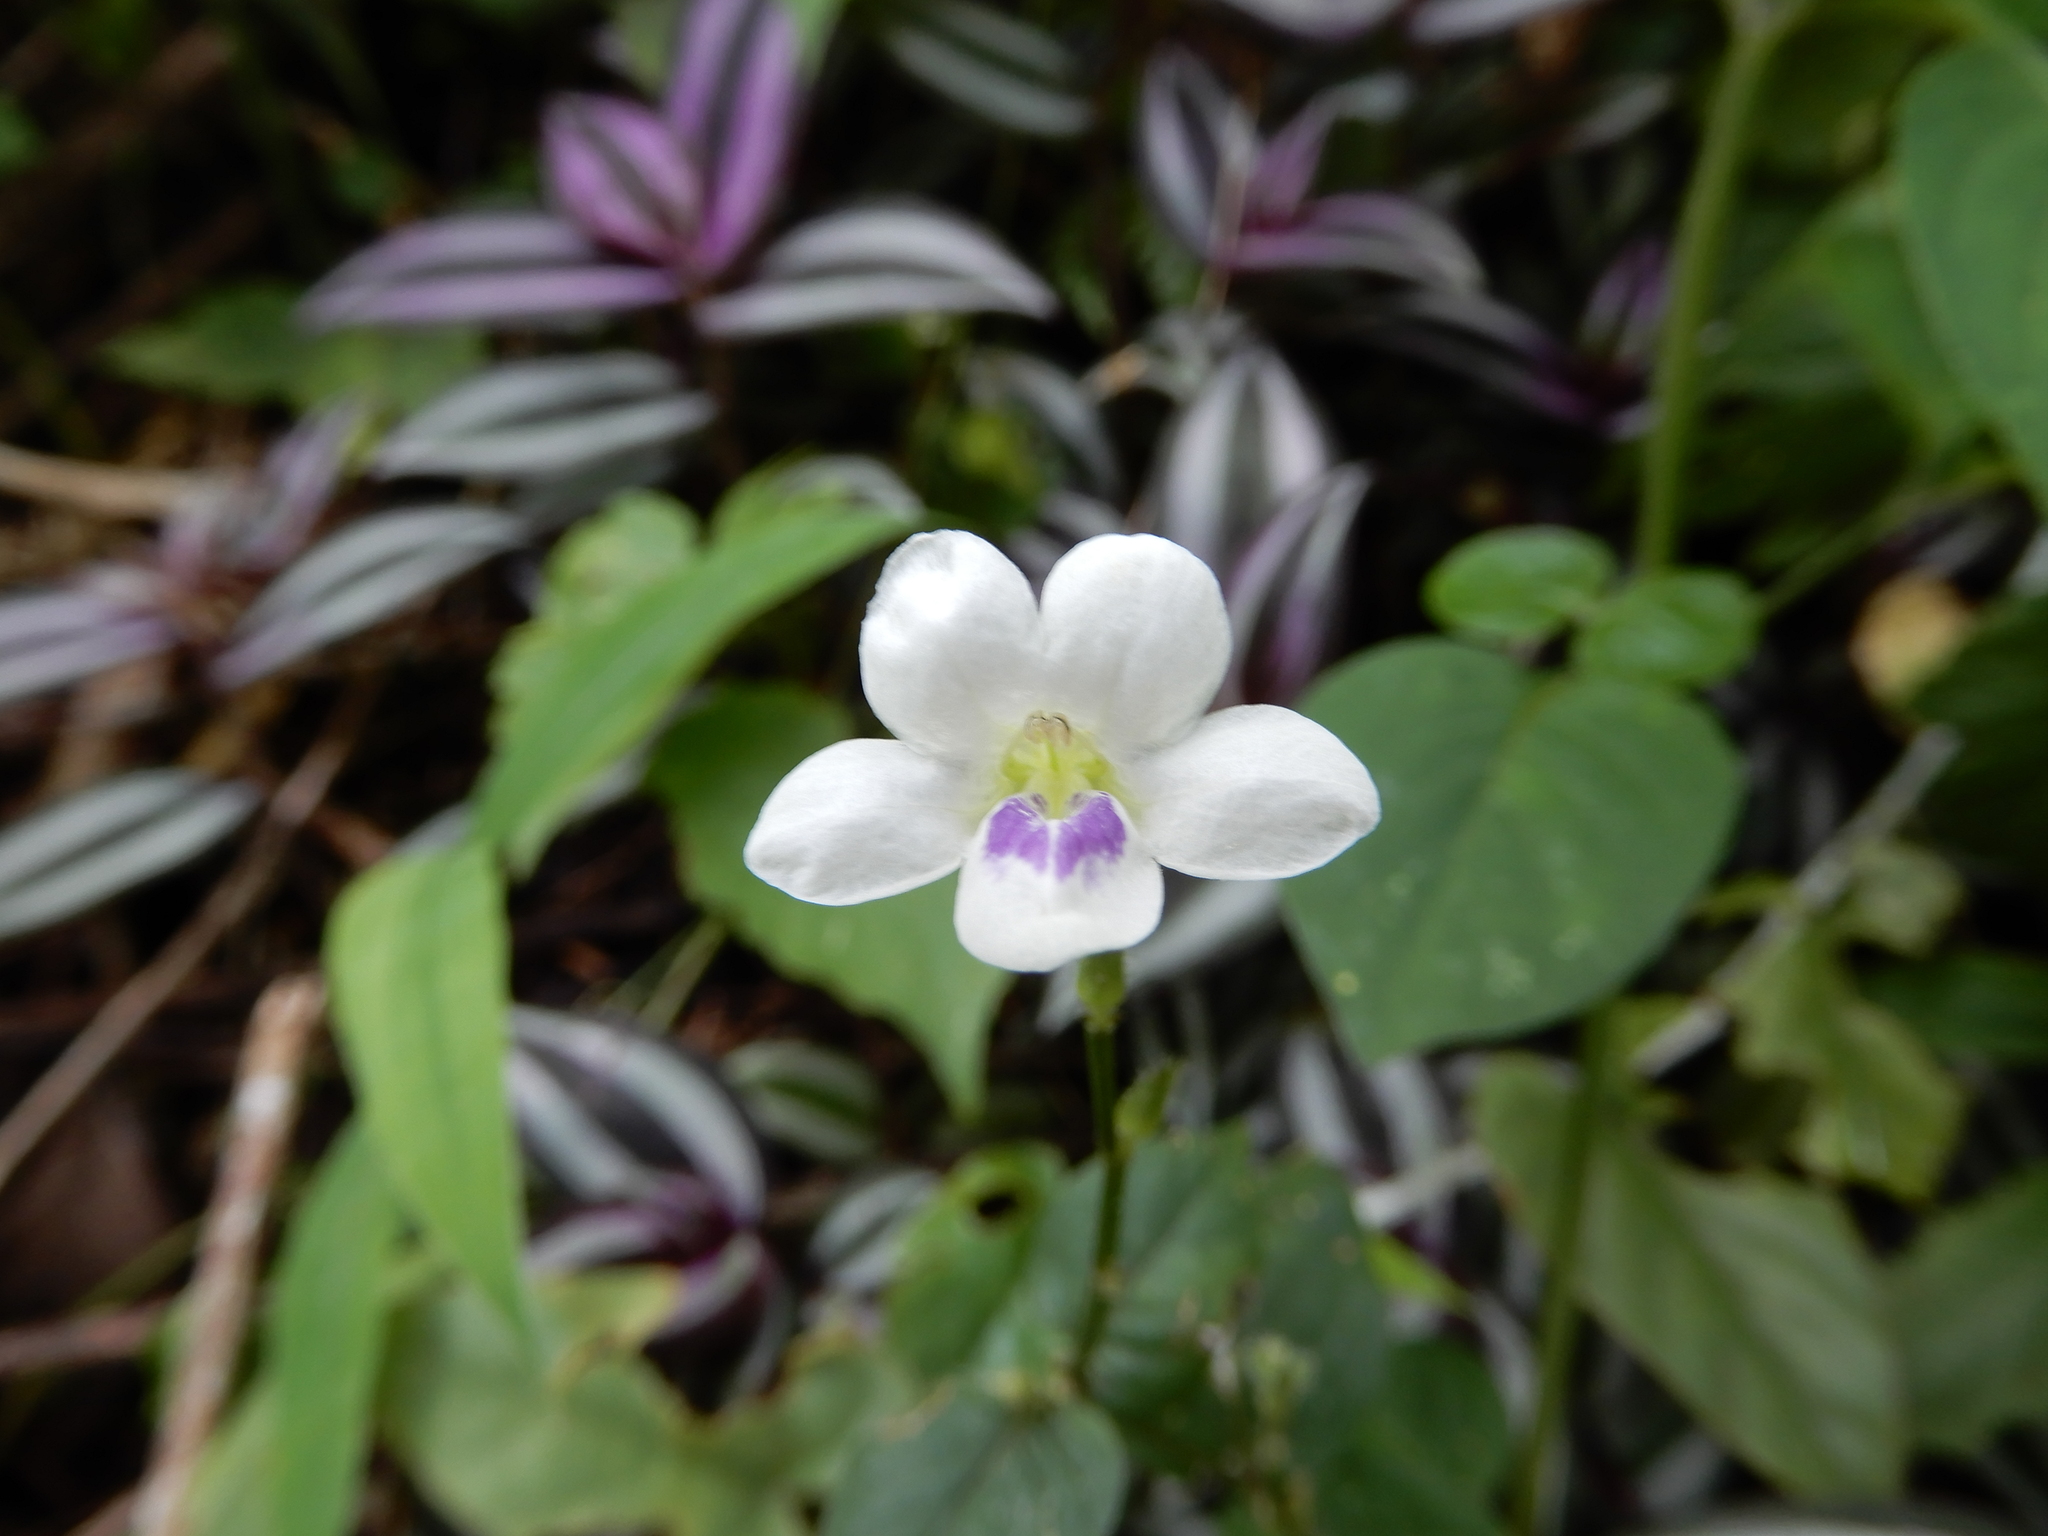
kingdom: Plantae
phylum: Tracheophyta
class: Magnoliopsida
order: Lamiales
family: Acanthaceae
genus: Asystasia
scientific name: Asystasia intrusa
